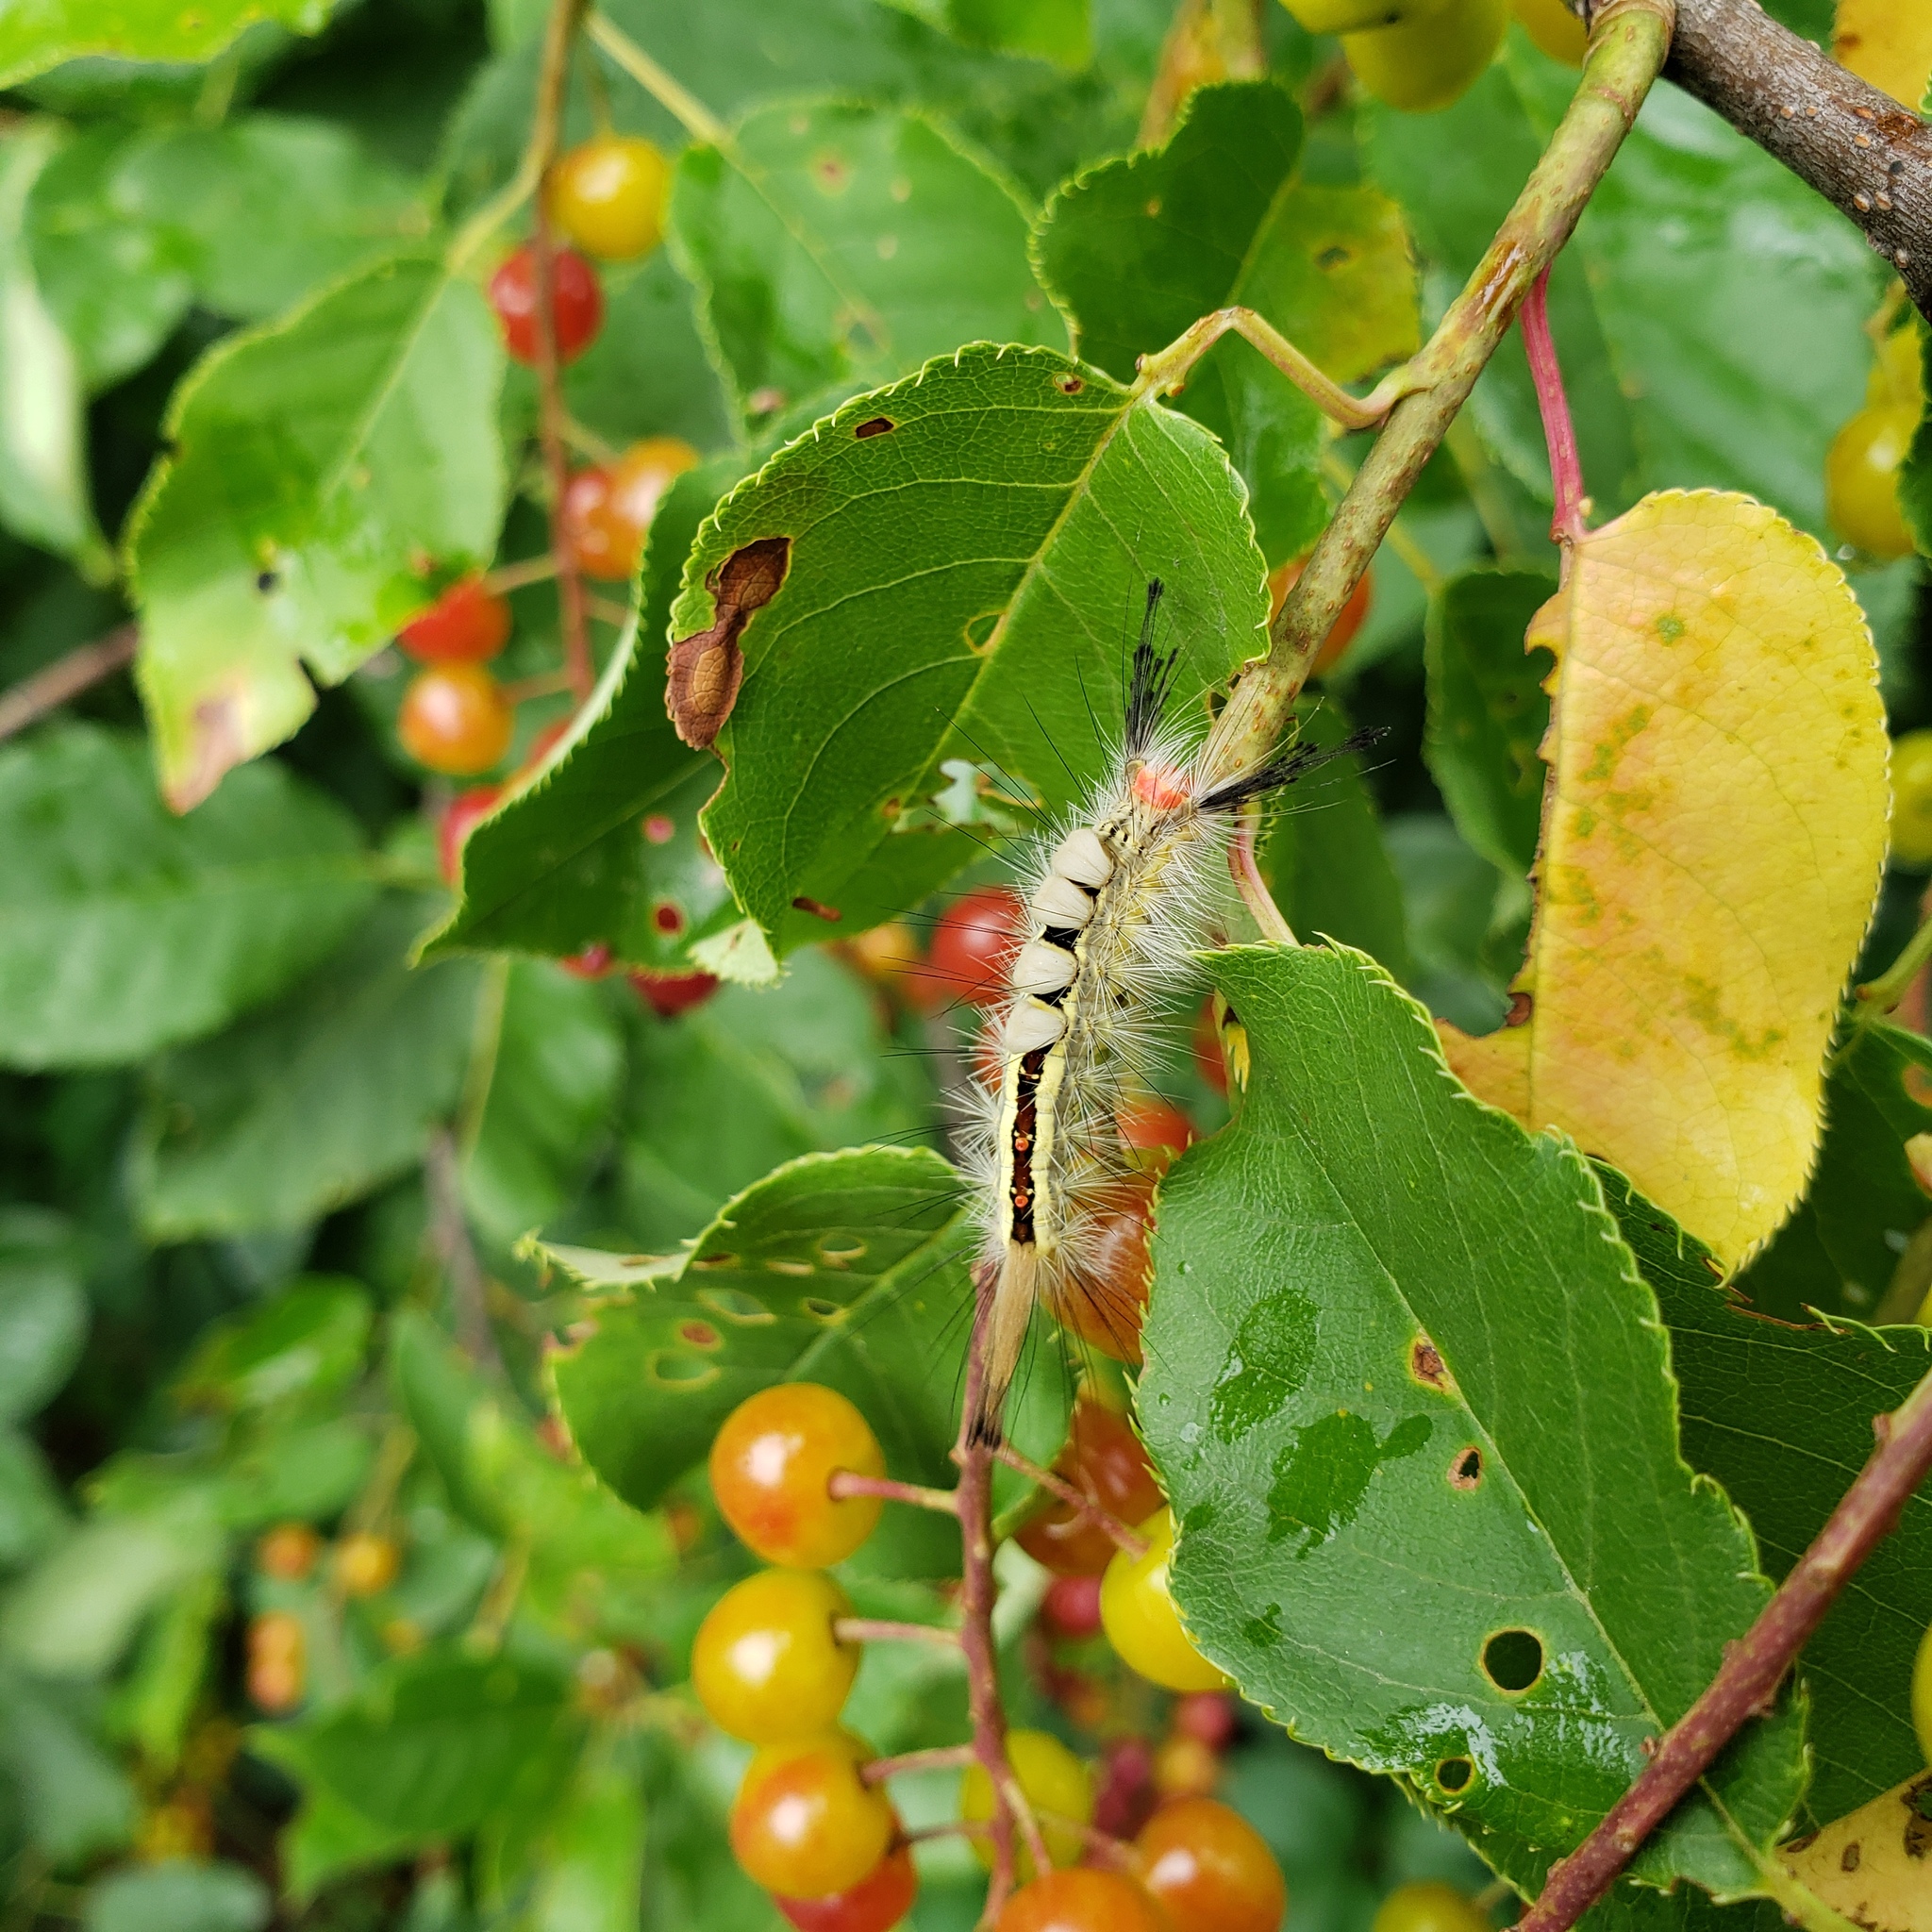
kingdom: Animalia
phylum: Arthropoda
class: Insecta
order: Lepidoptera
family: Erebidae
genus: Orgyia
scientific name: Orgyia leucostigma
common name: White-marked tussock moth
